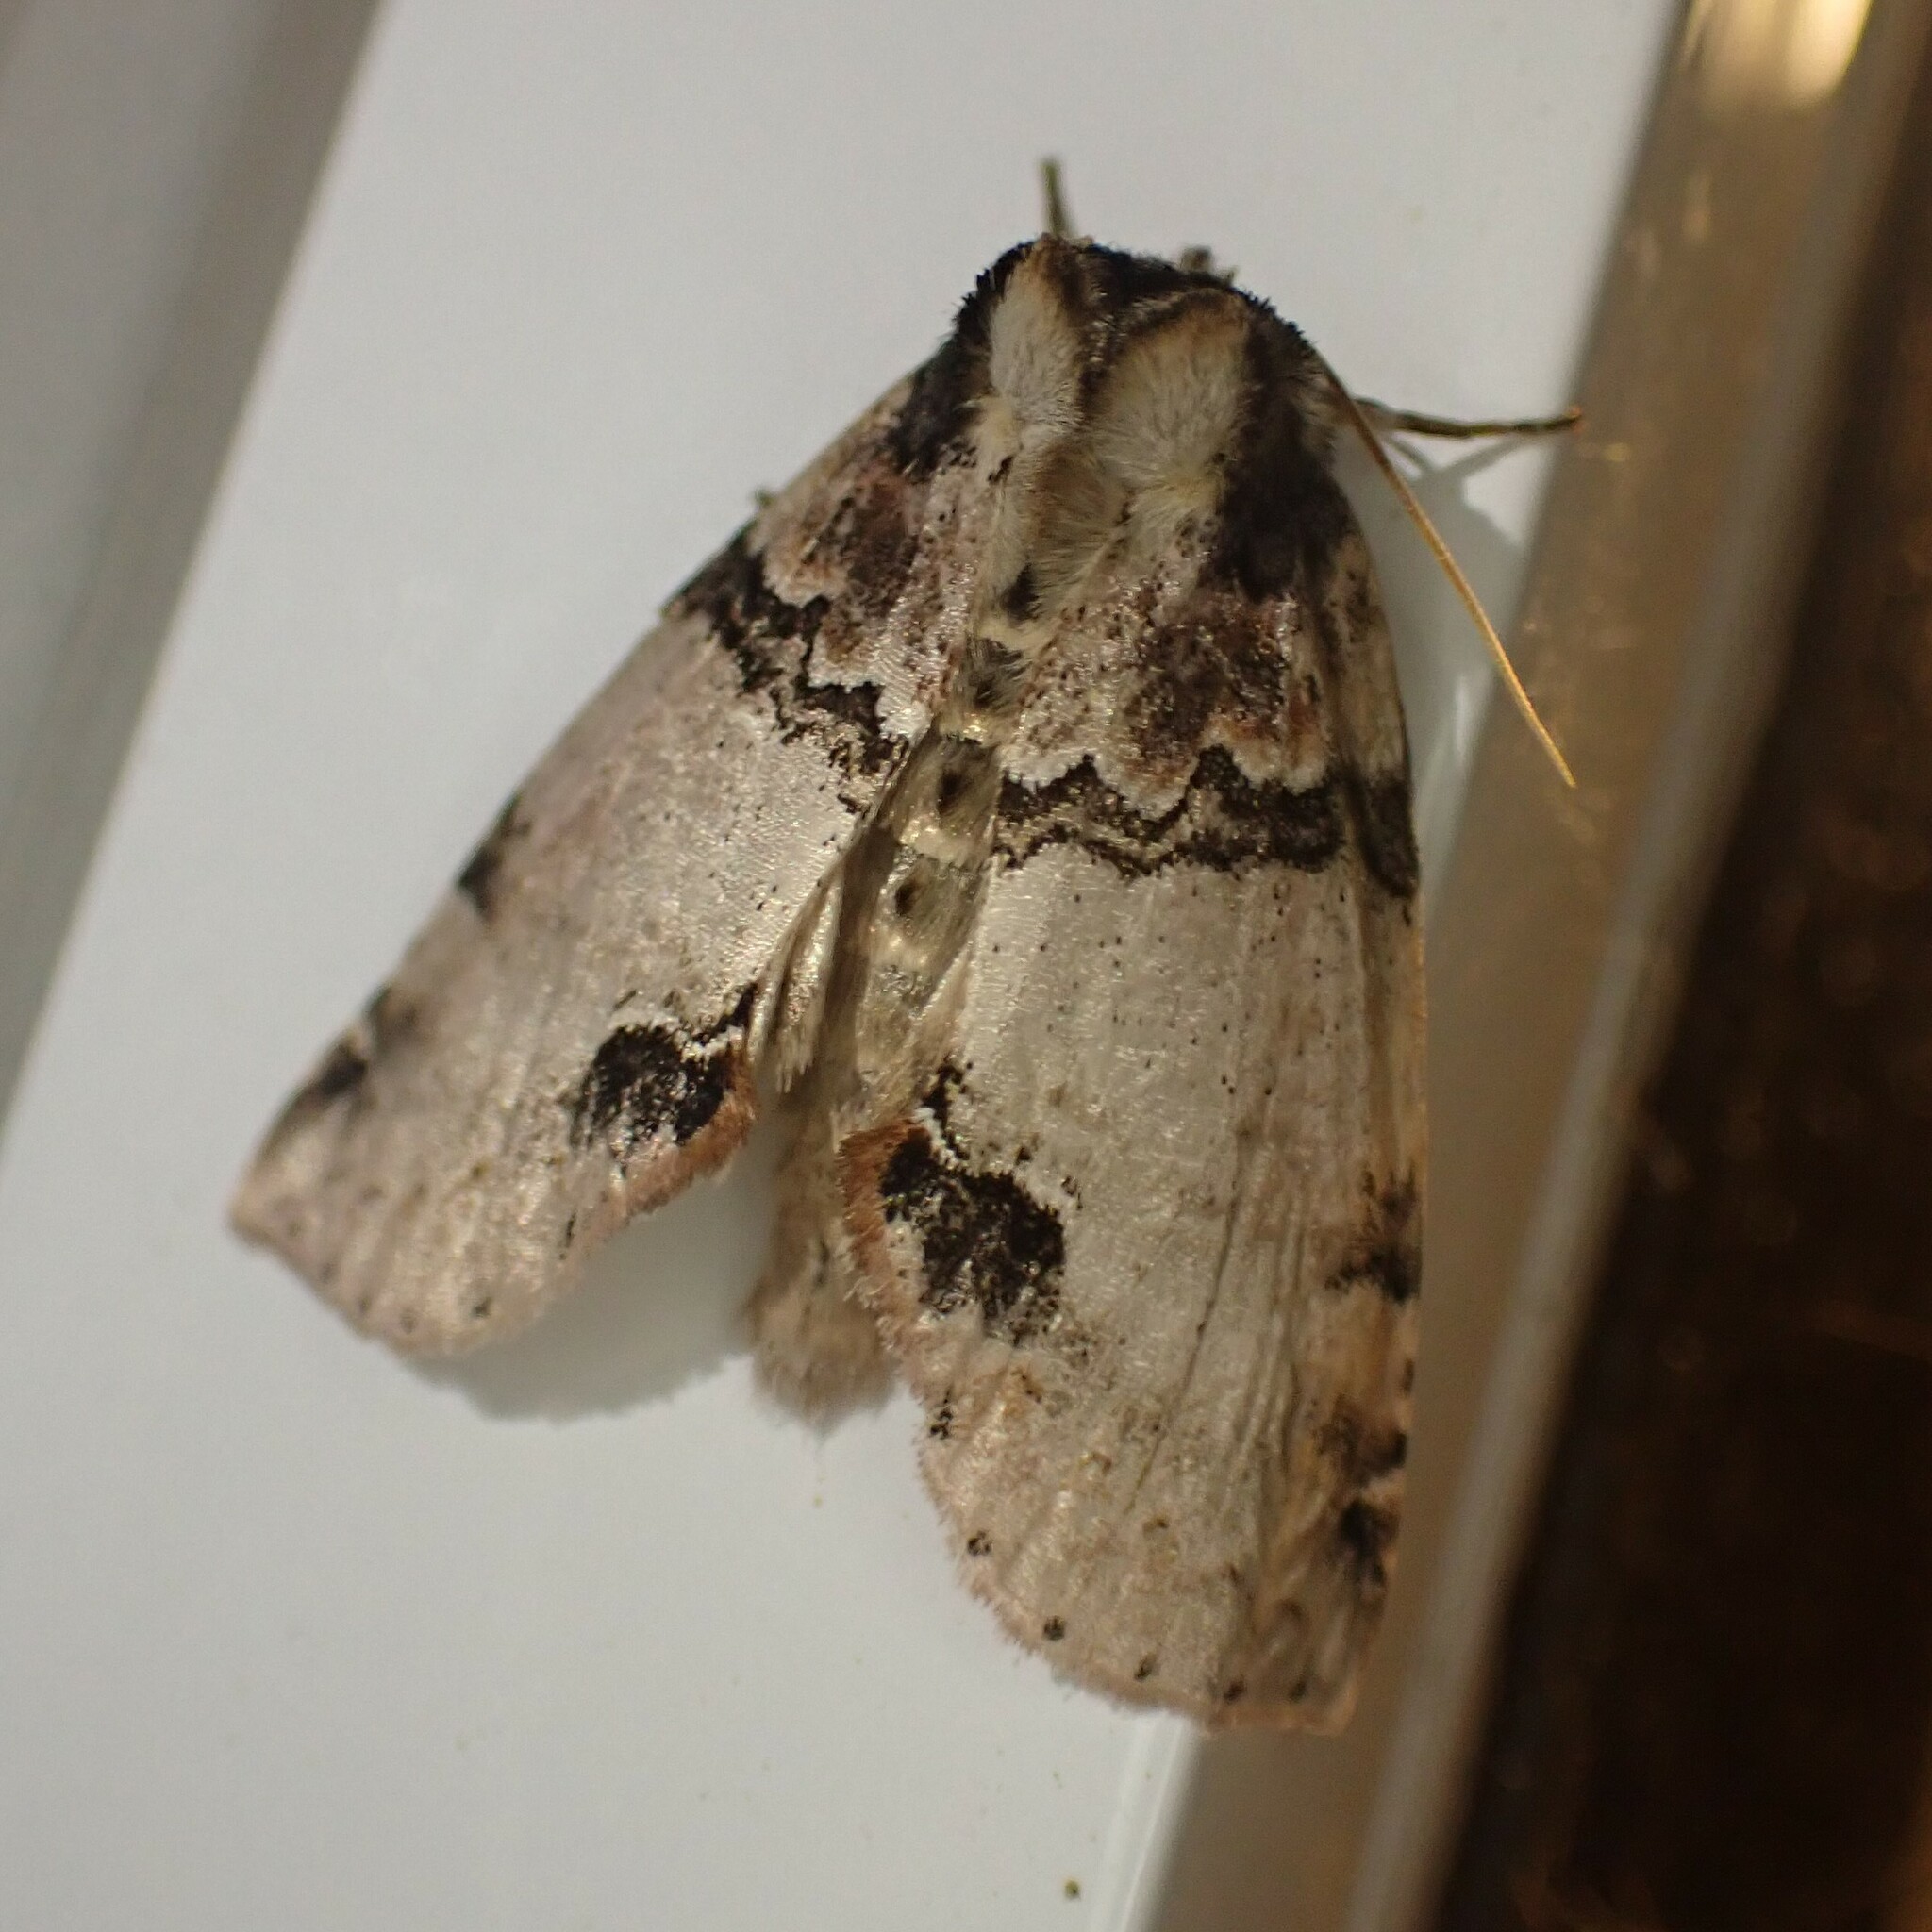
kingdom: Animalia
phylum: Arthropoda
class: Insecta
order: Lepidoptera
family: Drepanidae
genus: Pseudothyatira
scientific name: Pseudothyatira cymatophoroides
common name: Tufted thyatirid moth
